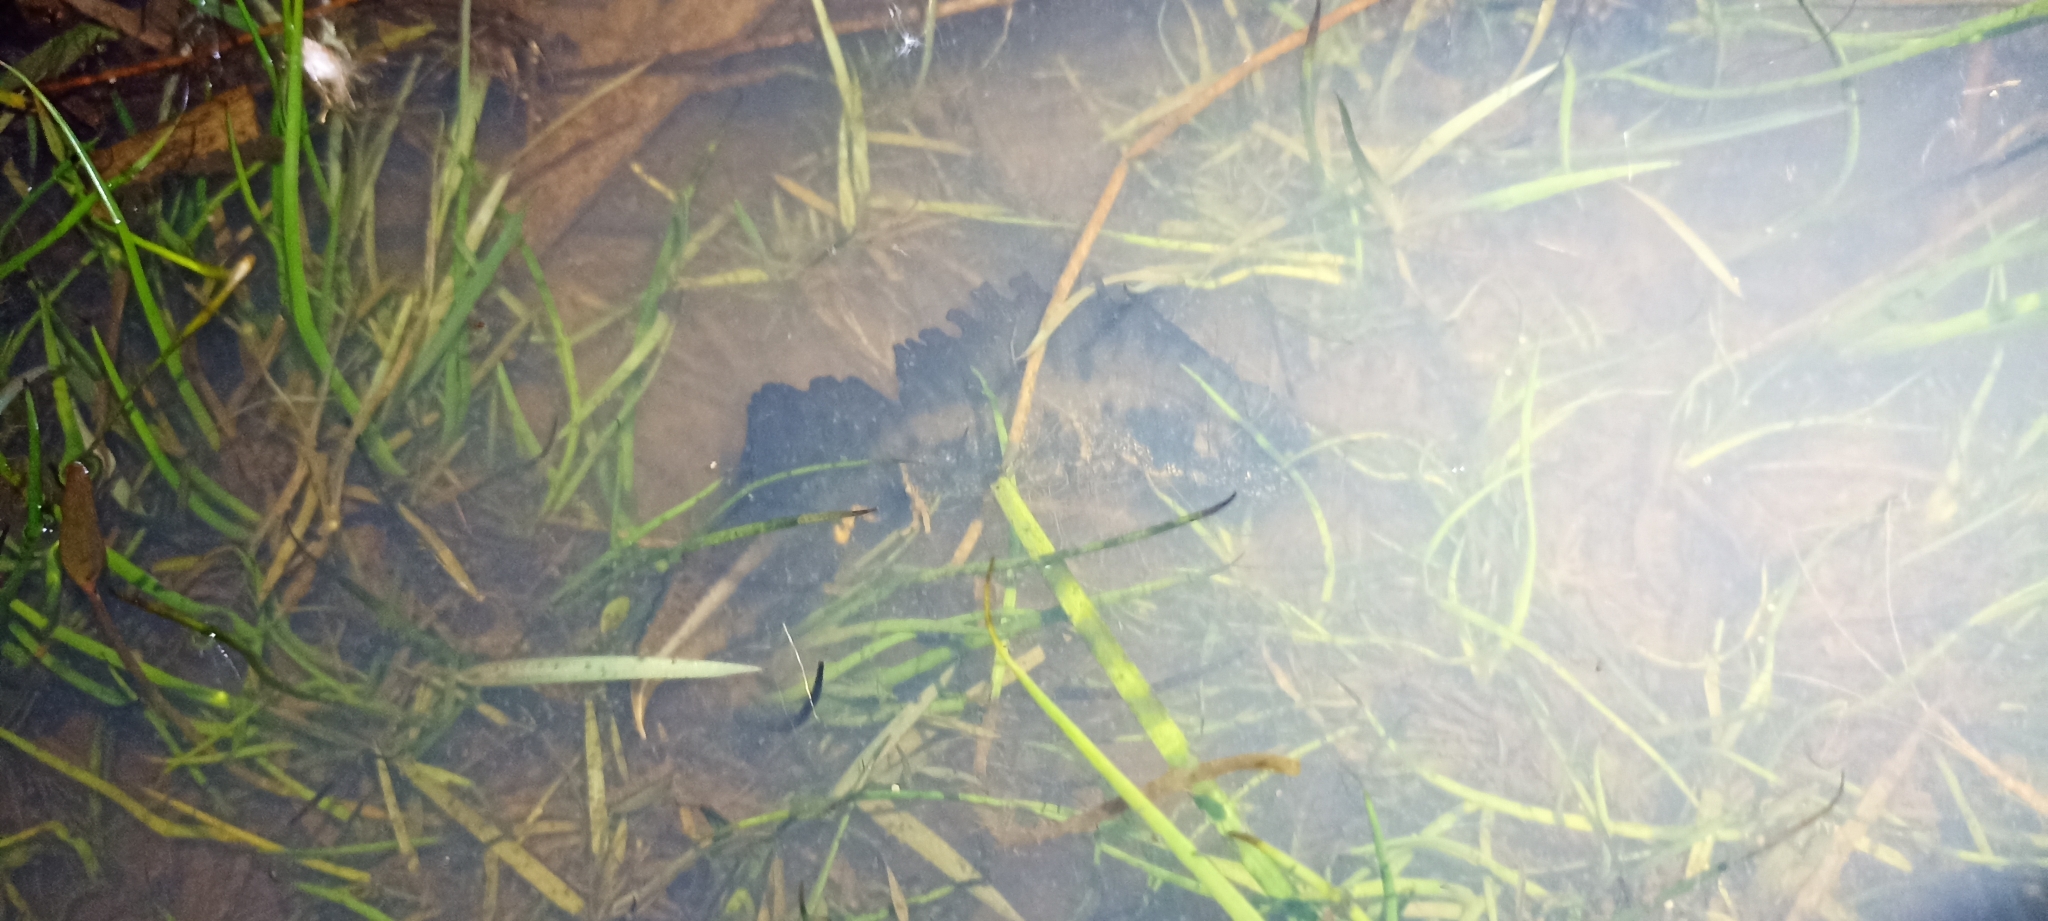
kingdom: Animalia
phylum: Chordata
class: Amphibia
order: Caudata
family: Salamandridae
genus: Triturus
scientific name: Triturus cristatus
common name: Crested newt
